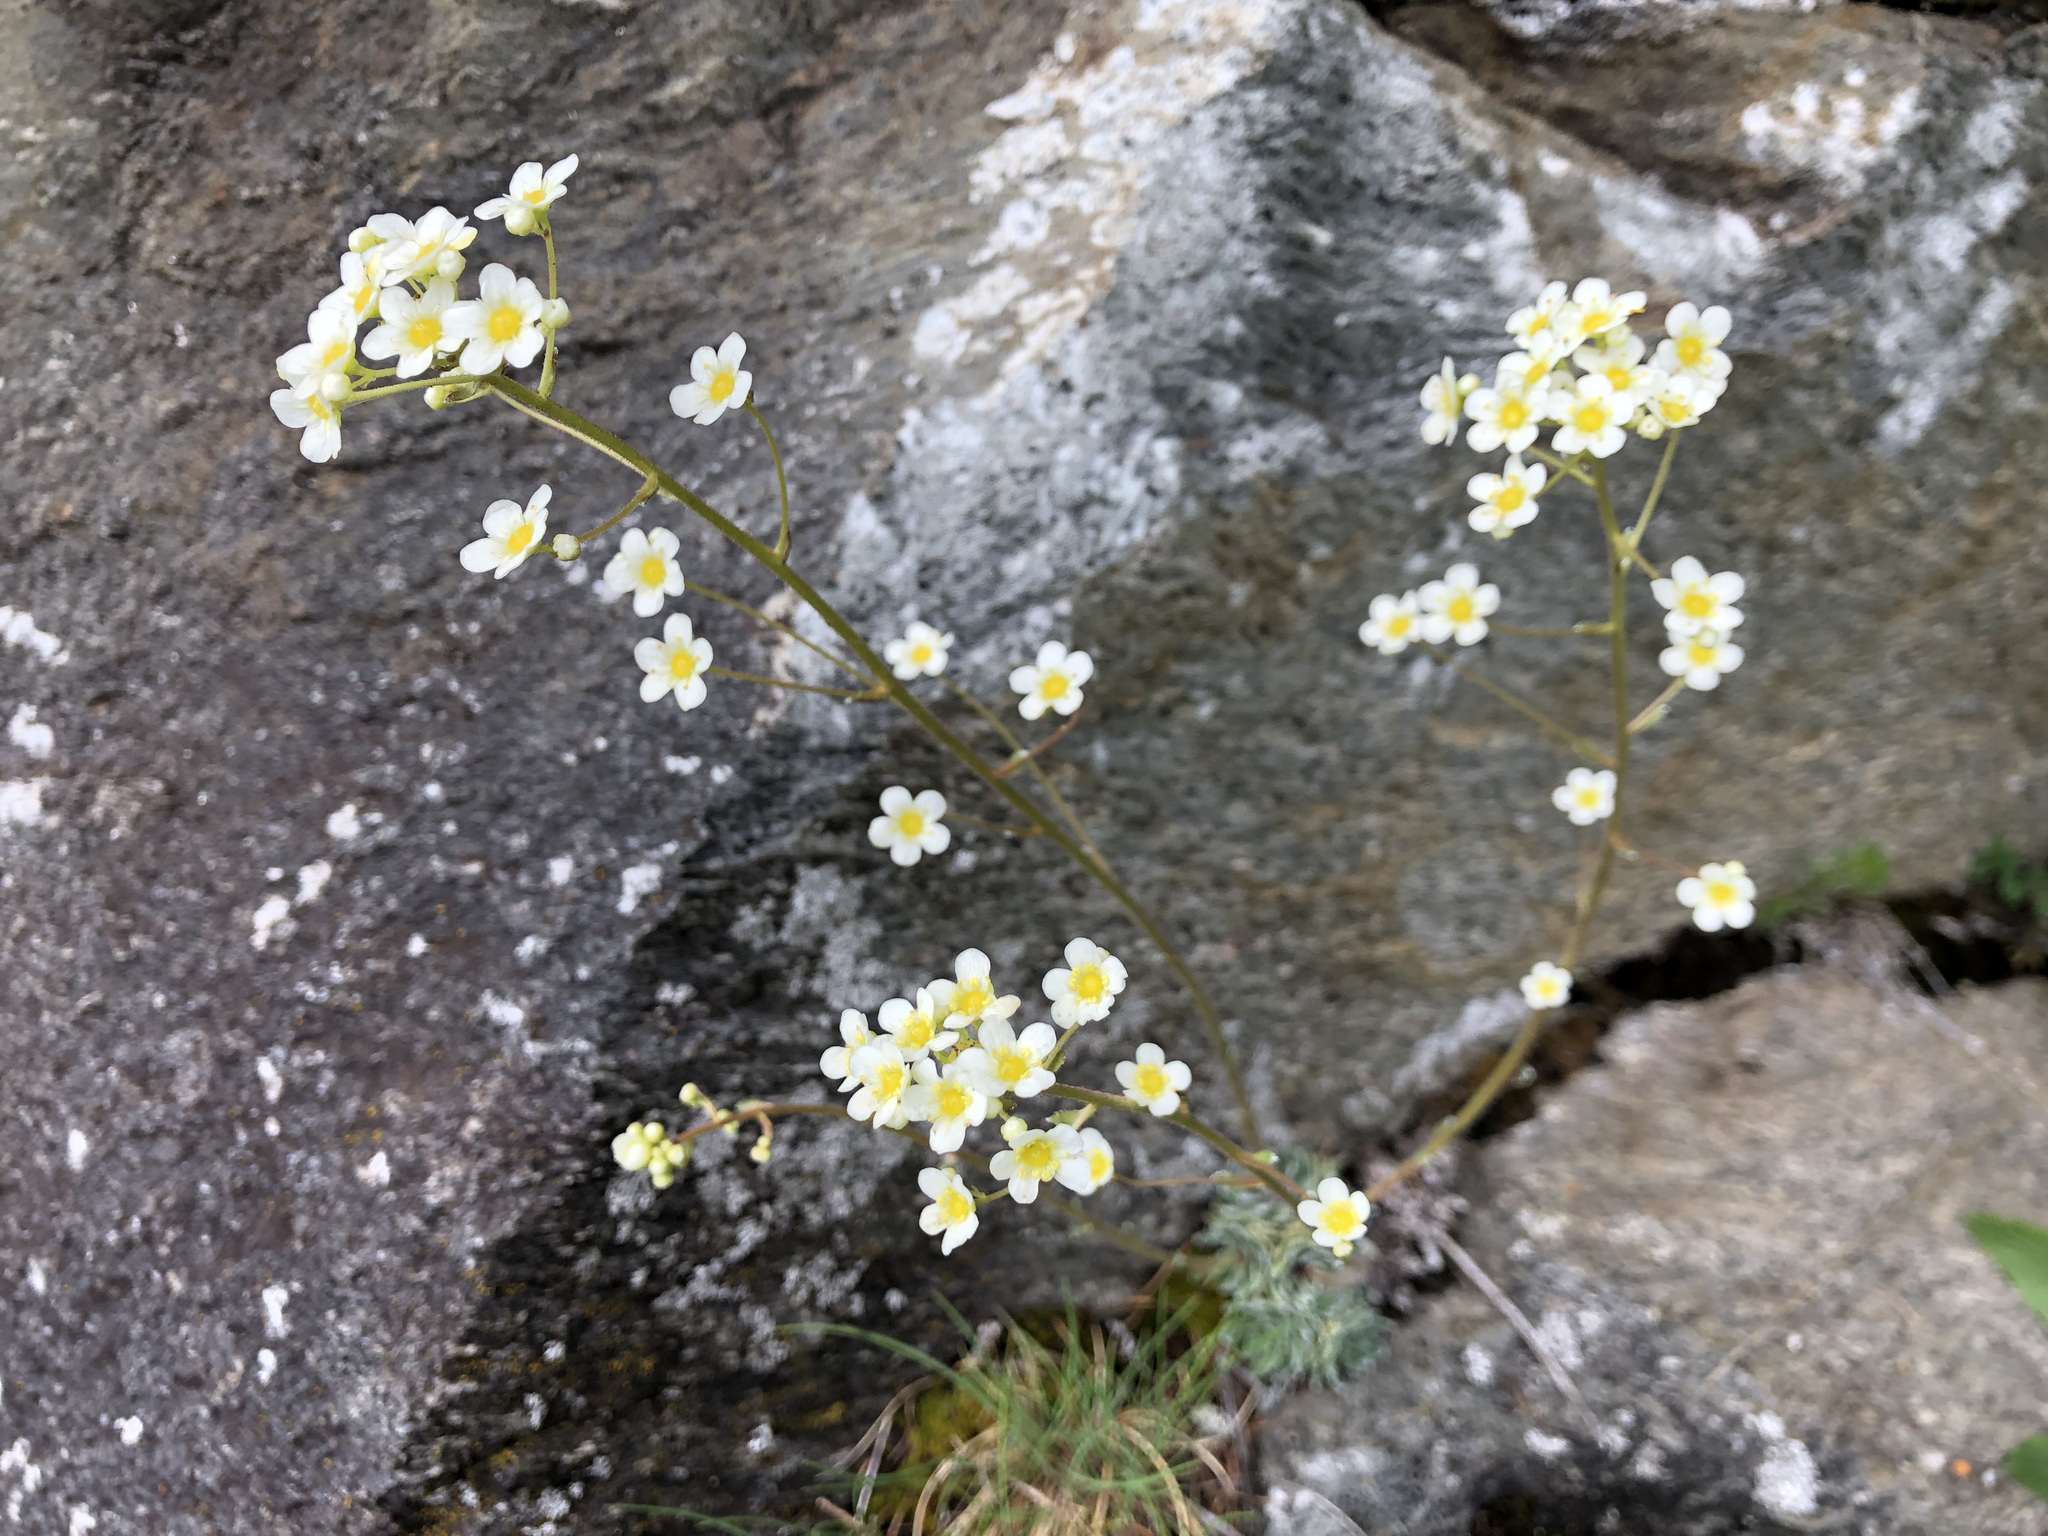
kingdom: Plantae
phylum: Tracheophyta
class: Magnoliopsida
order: Saxifragales
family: Saxifragaceae
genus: Saxifraga
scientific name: Saxifraga paniculata
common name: Livelong saxifrage
